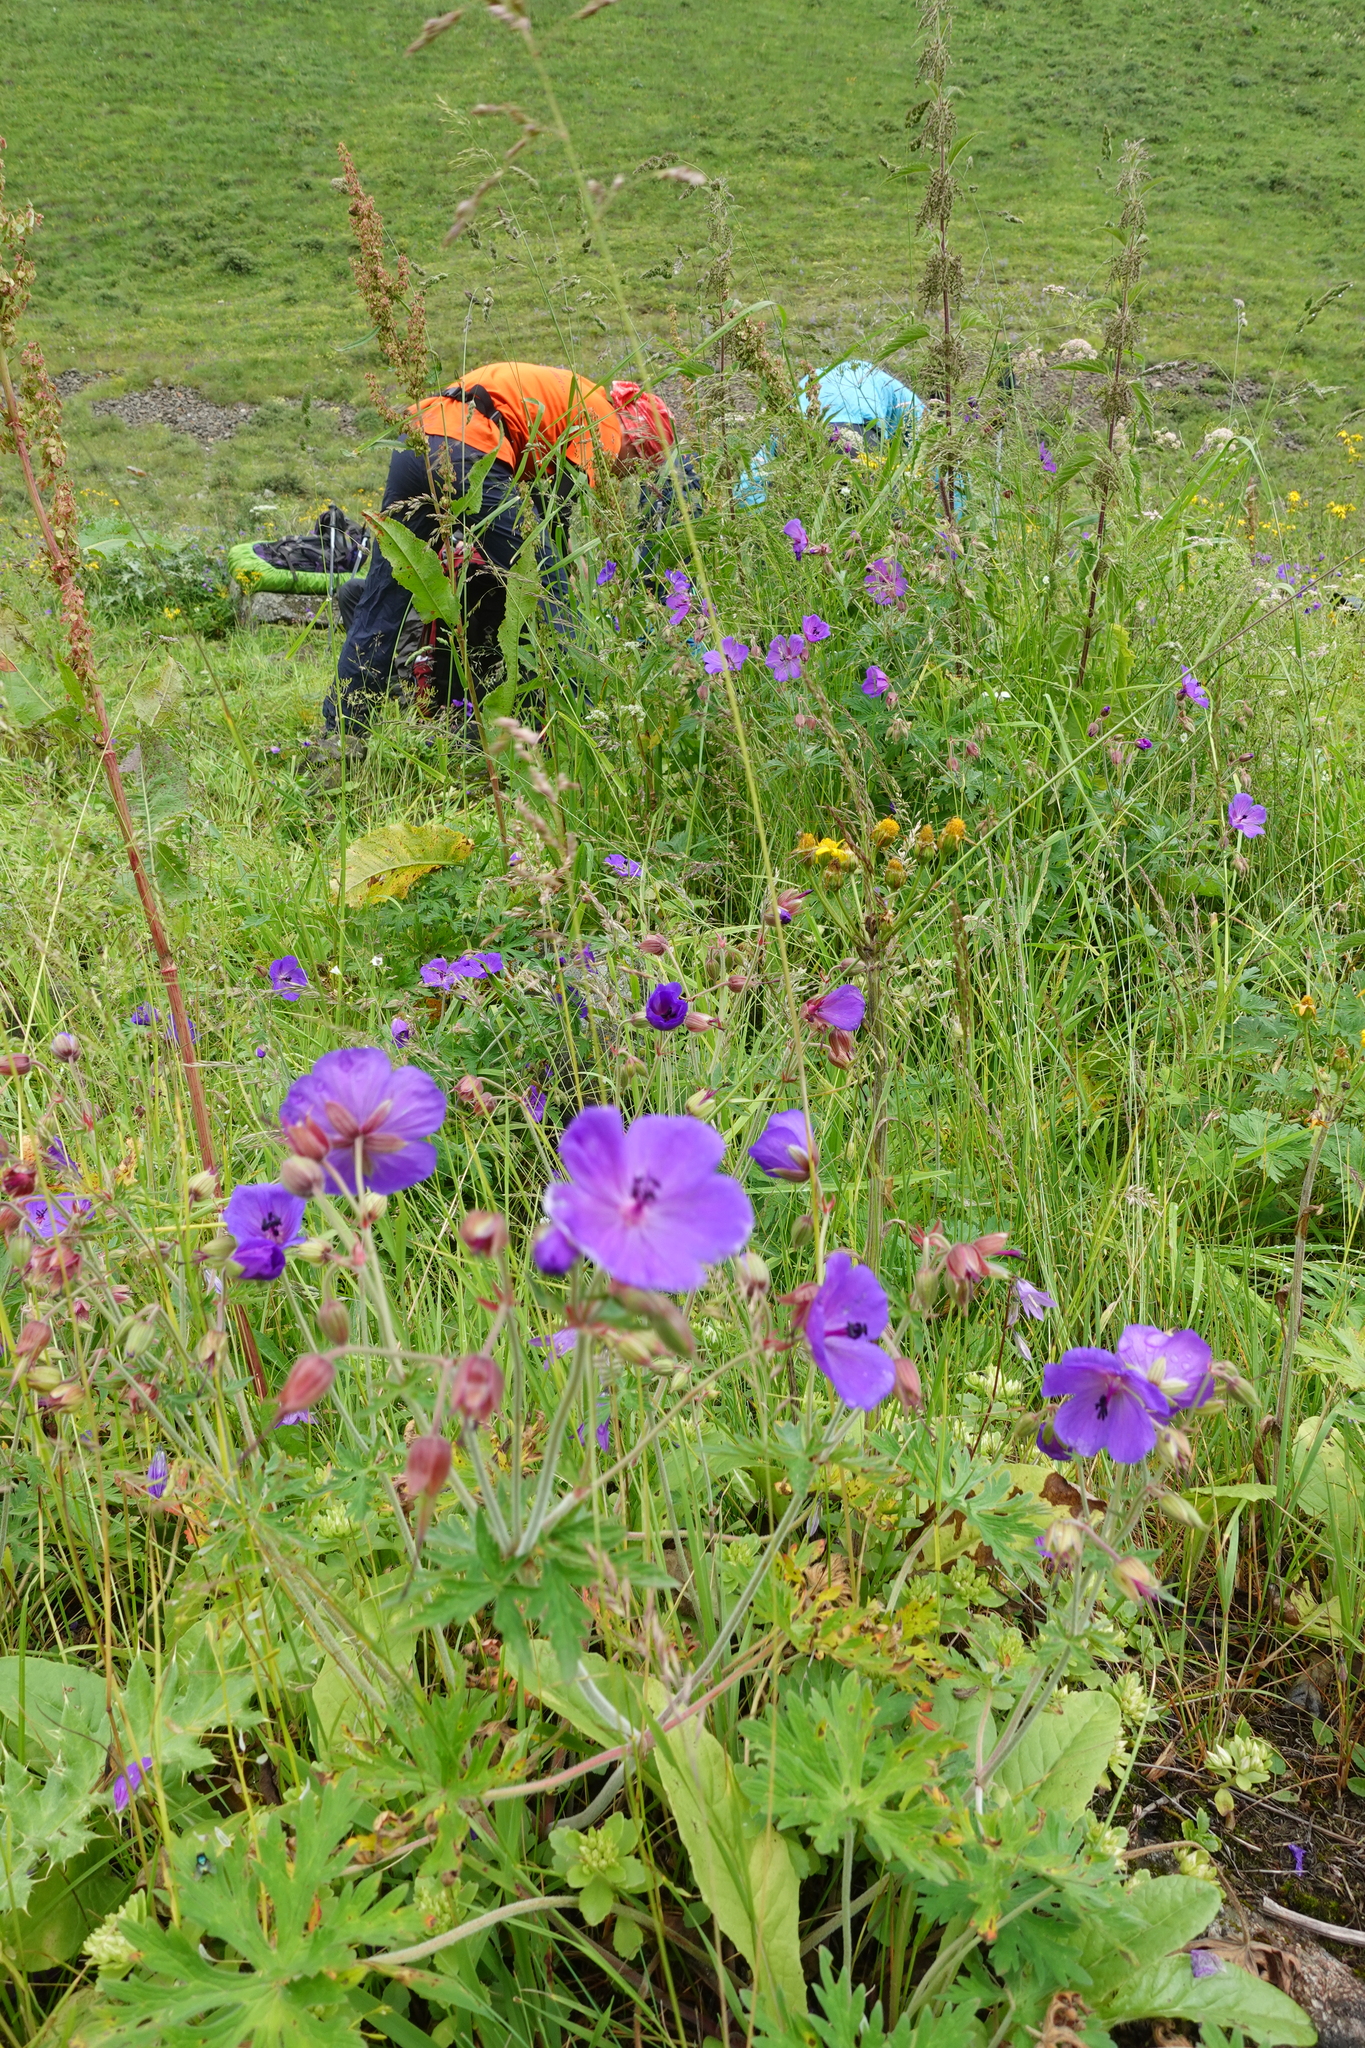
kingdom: Plantae
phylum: Tracheophyta
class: Magnoliopsida
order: Geraniales
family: Geraniaceae
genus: Geranium
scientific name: Geranium ruprechtii
